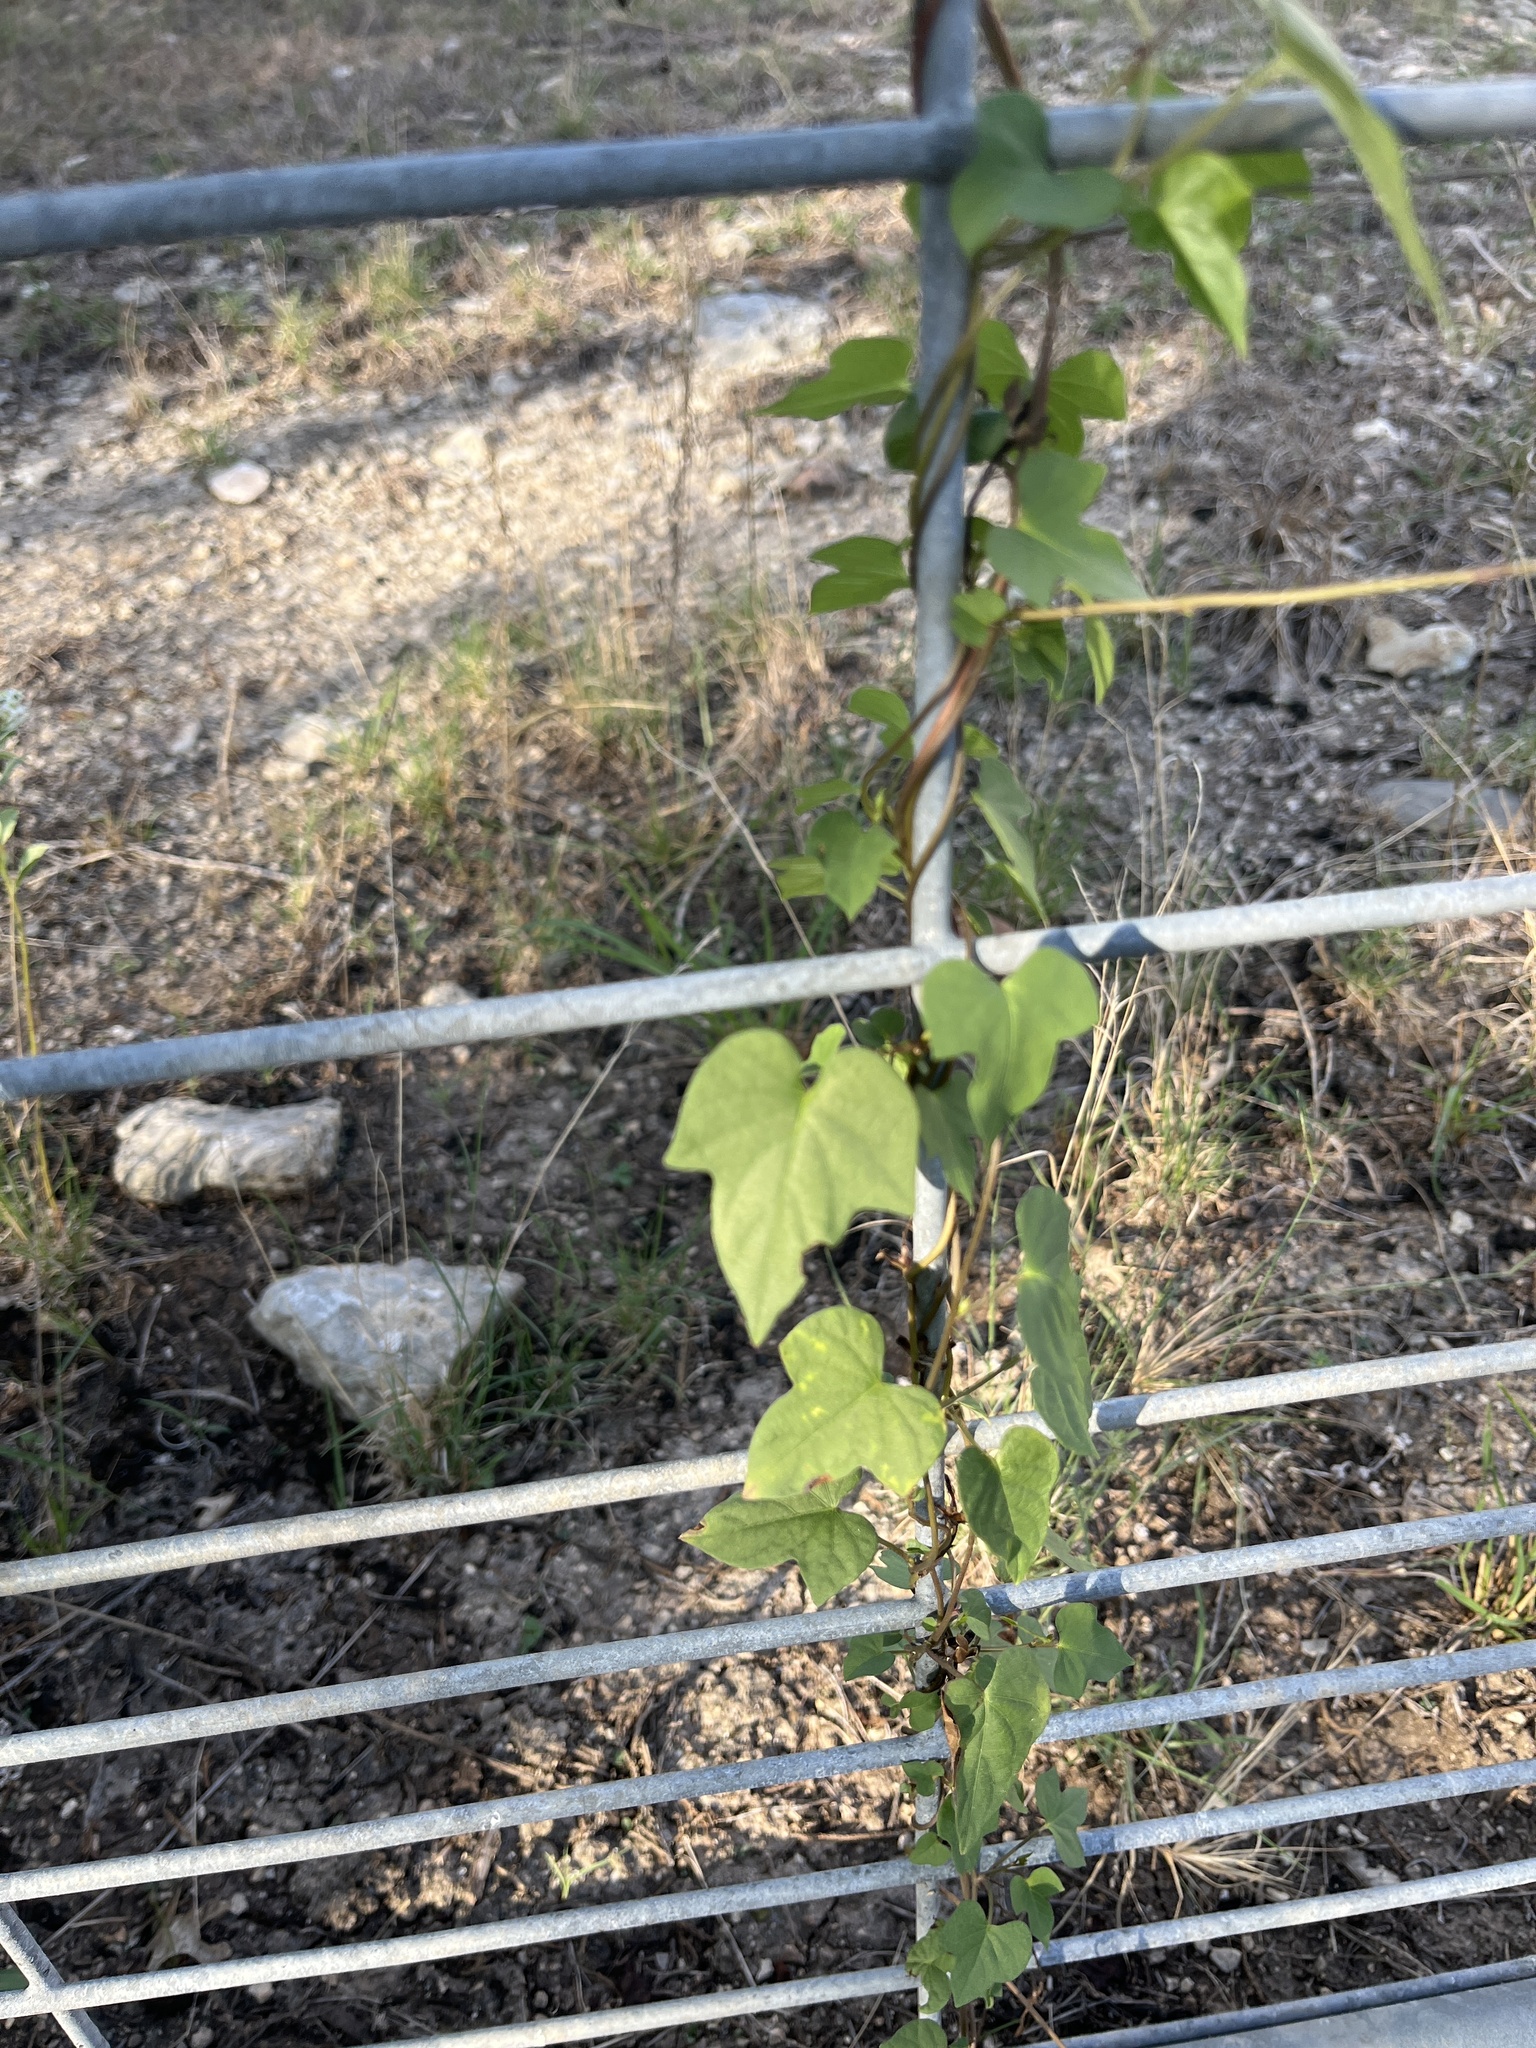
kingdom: Plantae
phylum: Tracheophyta
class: Magnoliopsida
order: Ranunculales
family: Menispermaceae
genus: Cocculus
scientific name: Cocculus carolinus
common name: Carolina moonseed
